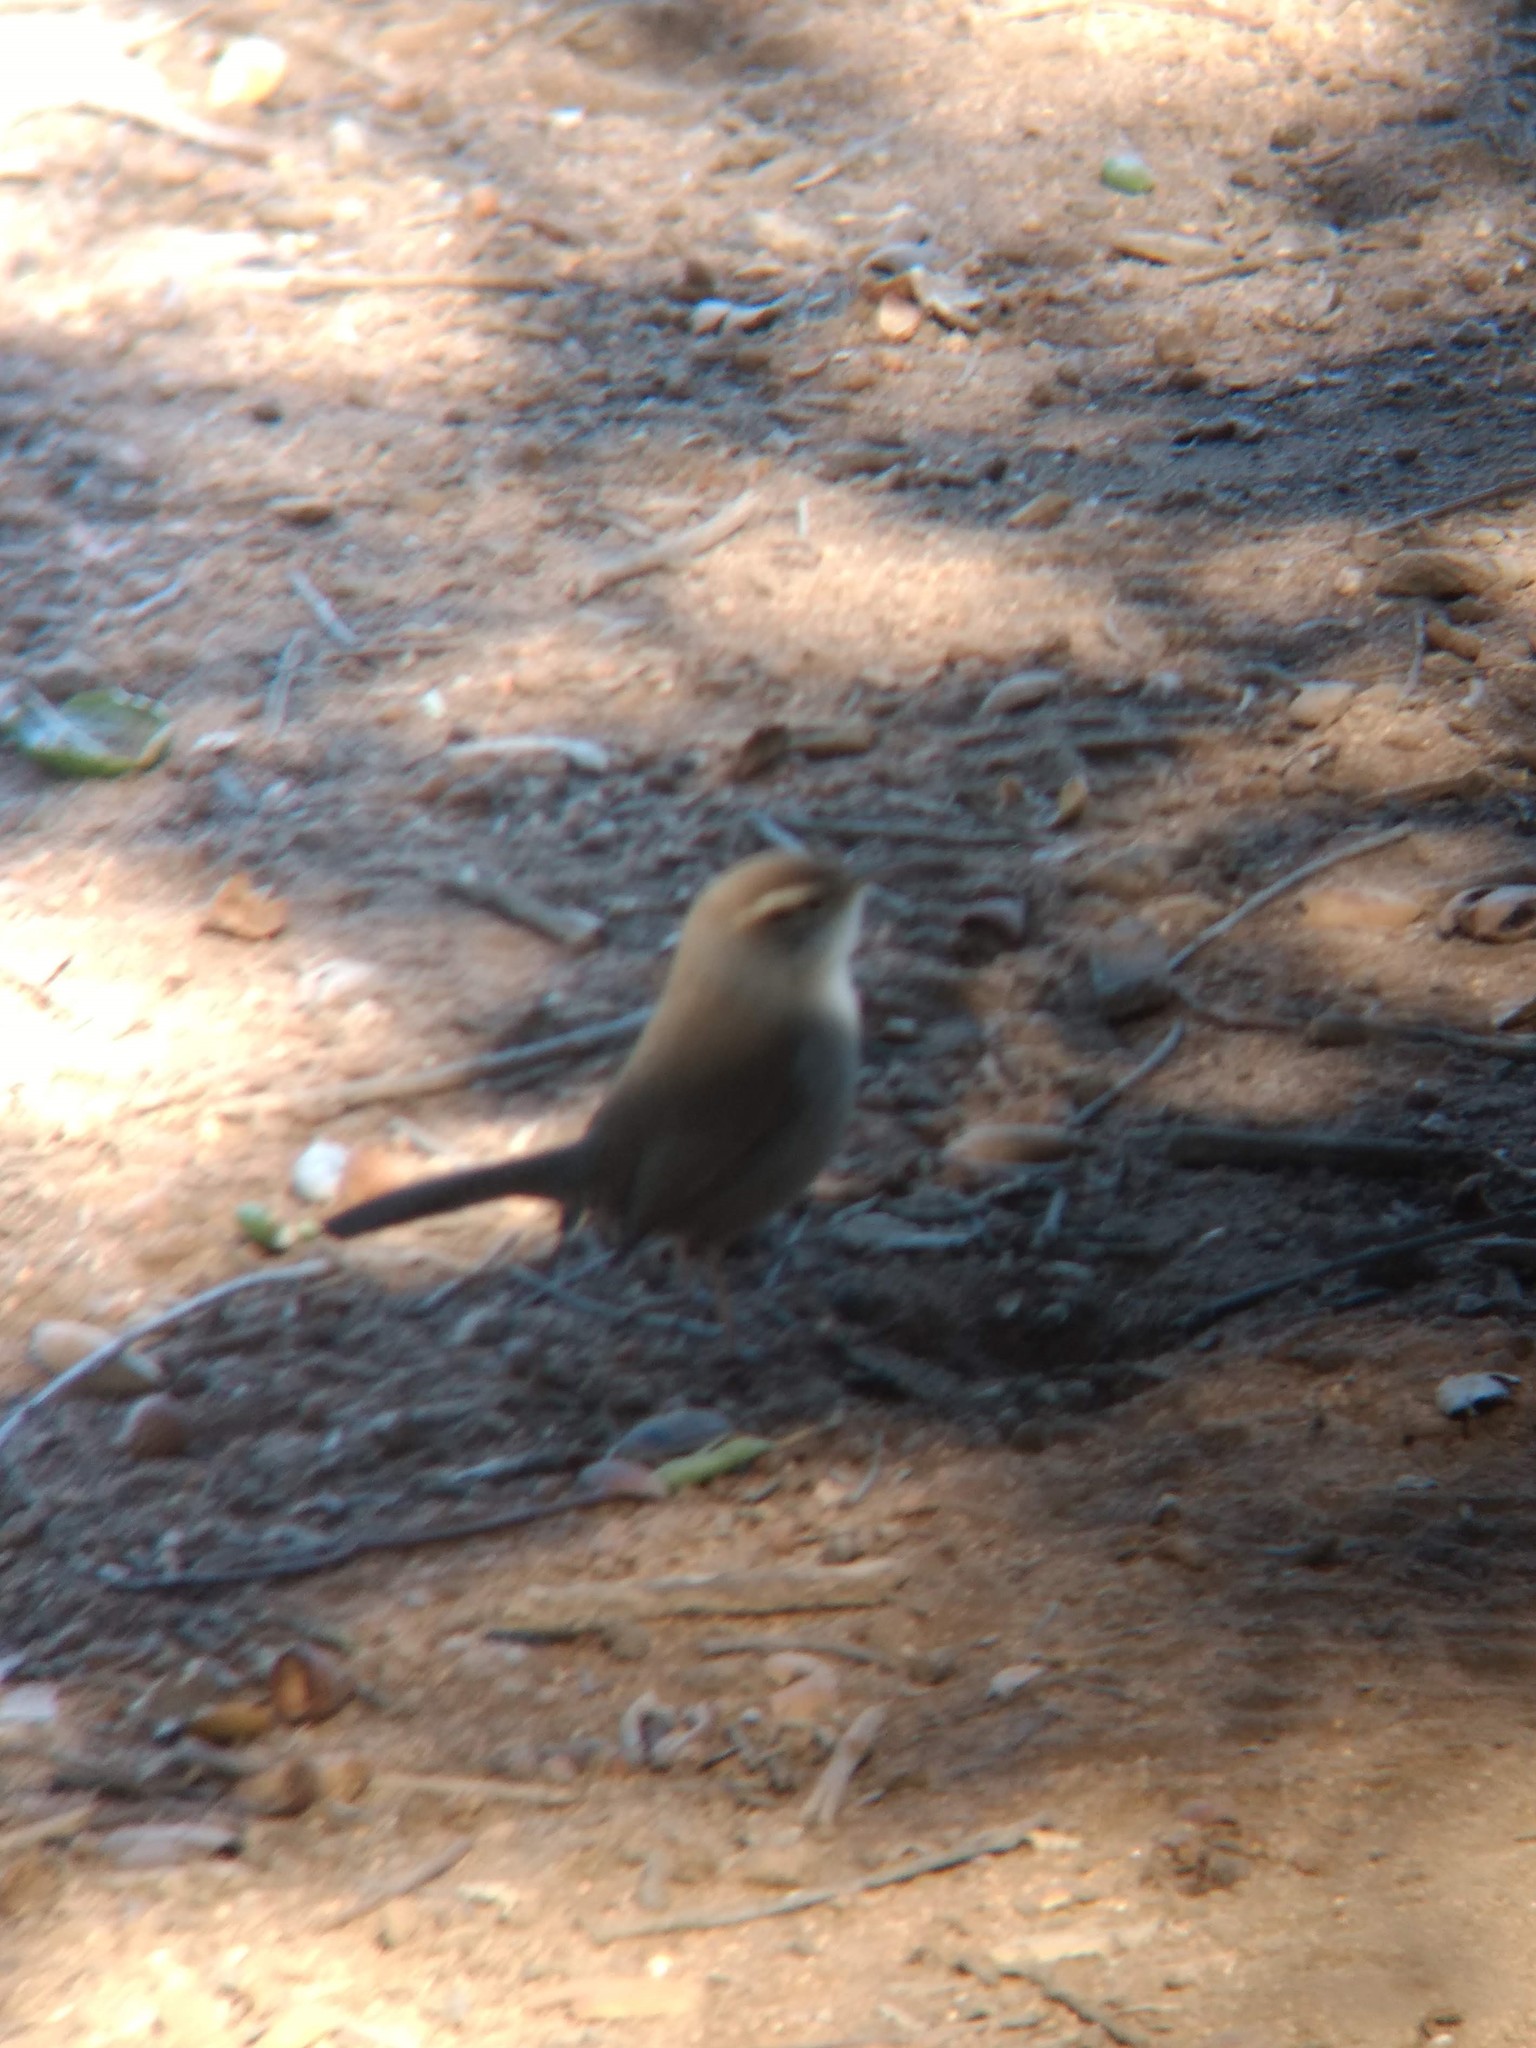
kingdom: Animalia
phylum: Chordata
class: Aves
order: Passeriformes
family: Troglodytidae
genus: Thryomanes
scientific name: Thryomanes bewickii
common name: Bewick's wren
